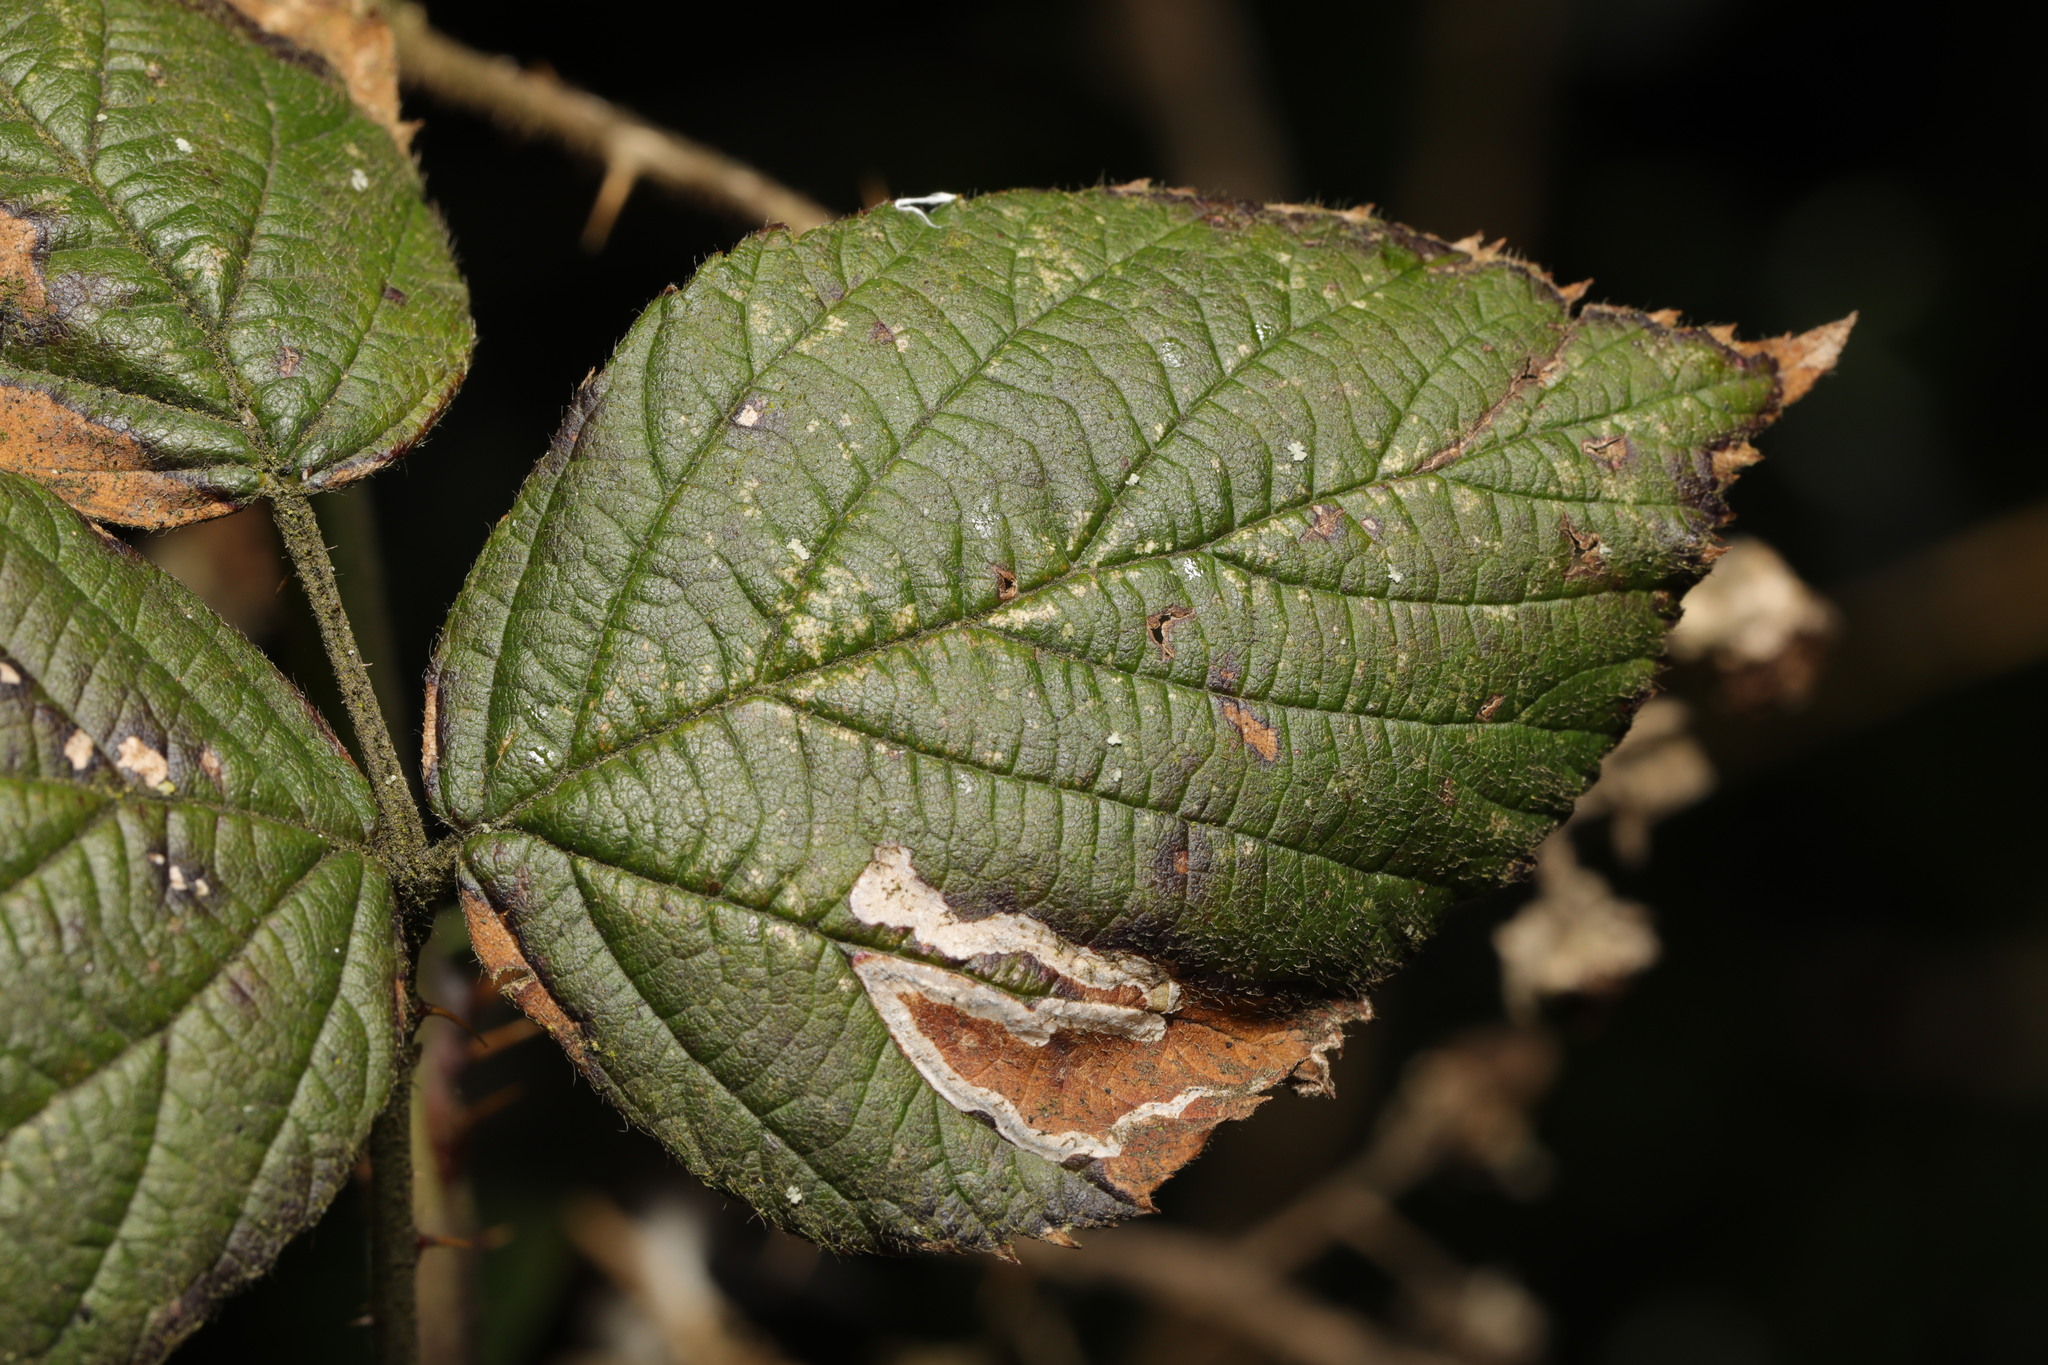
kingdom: Animalia
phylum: Arthropoda
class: Insecta
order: Lepidoptera
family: Nepticulidae
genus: Stigmella
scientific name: Stigmella aurella
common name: Golden pigmy
